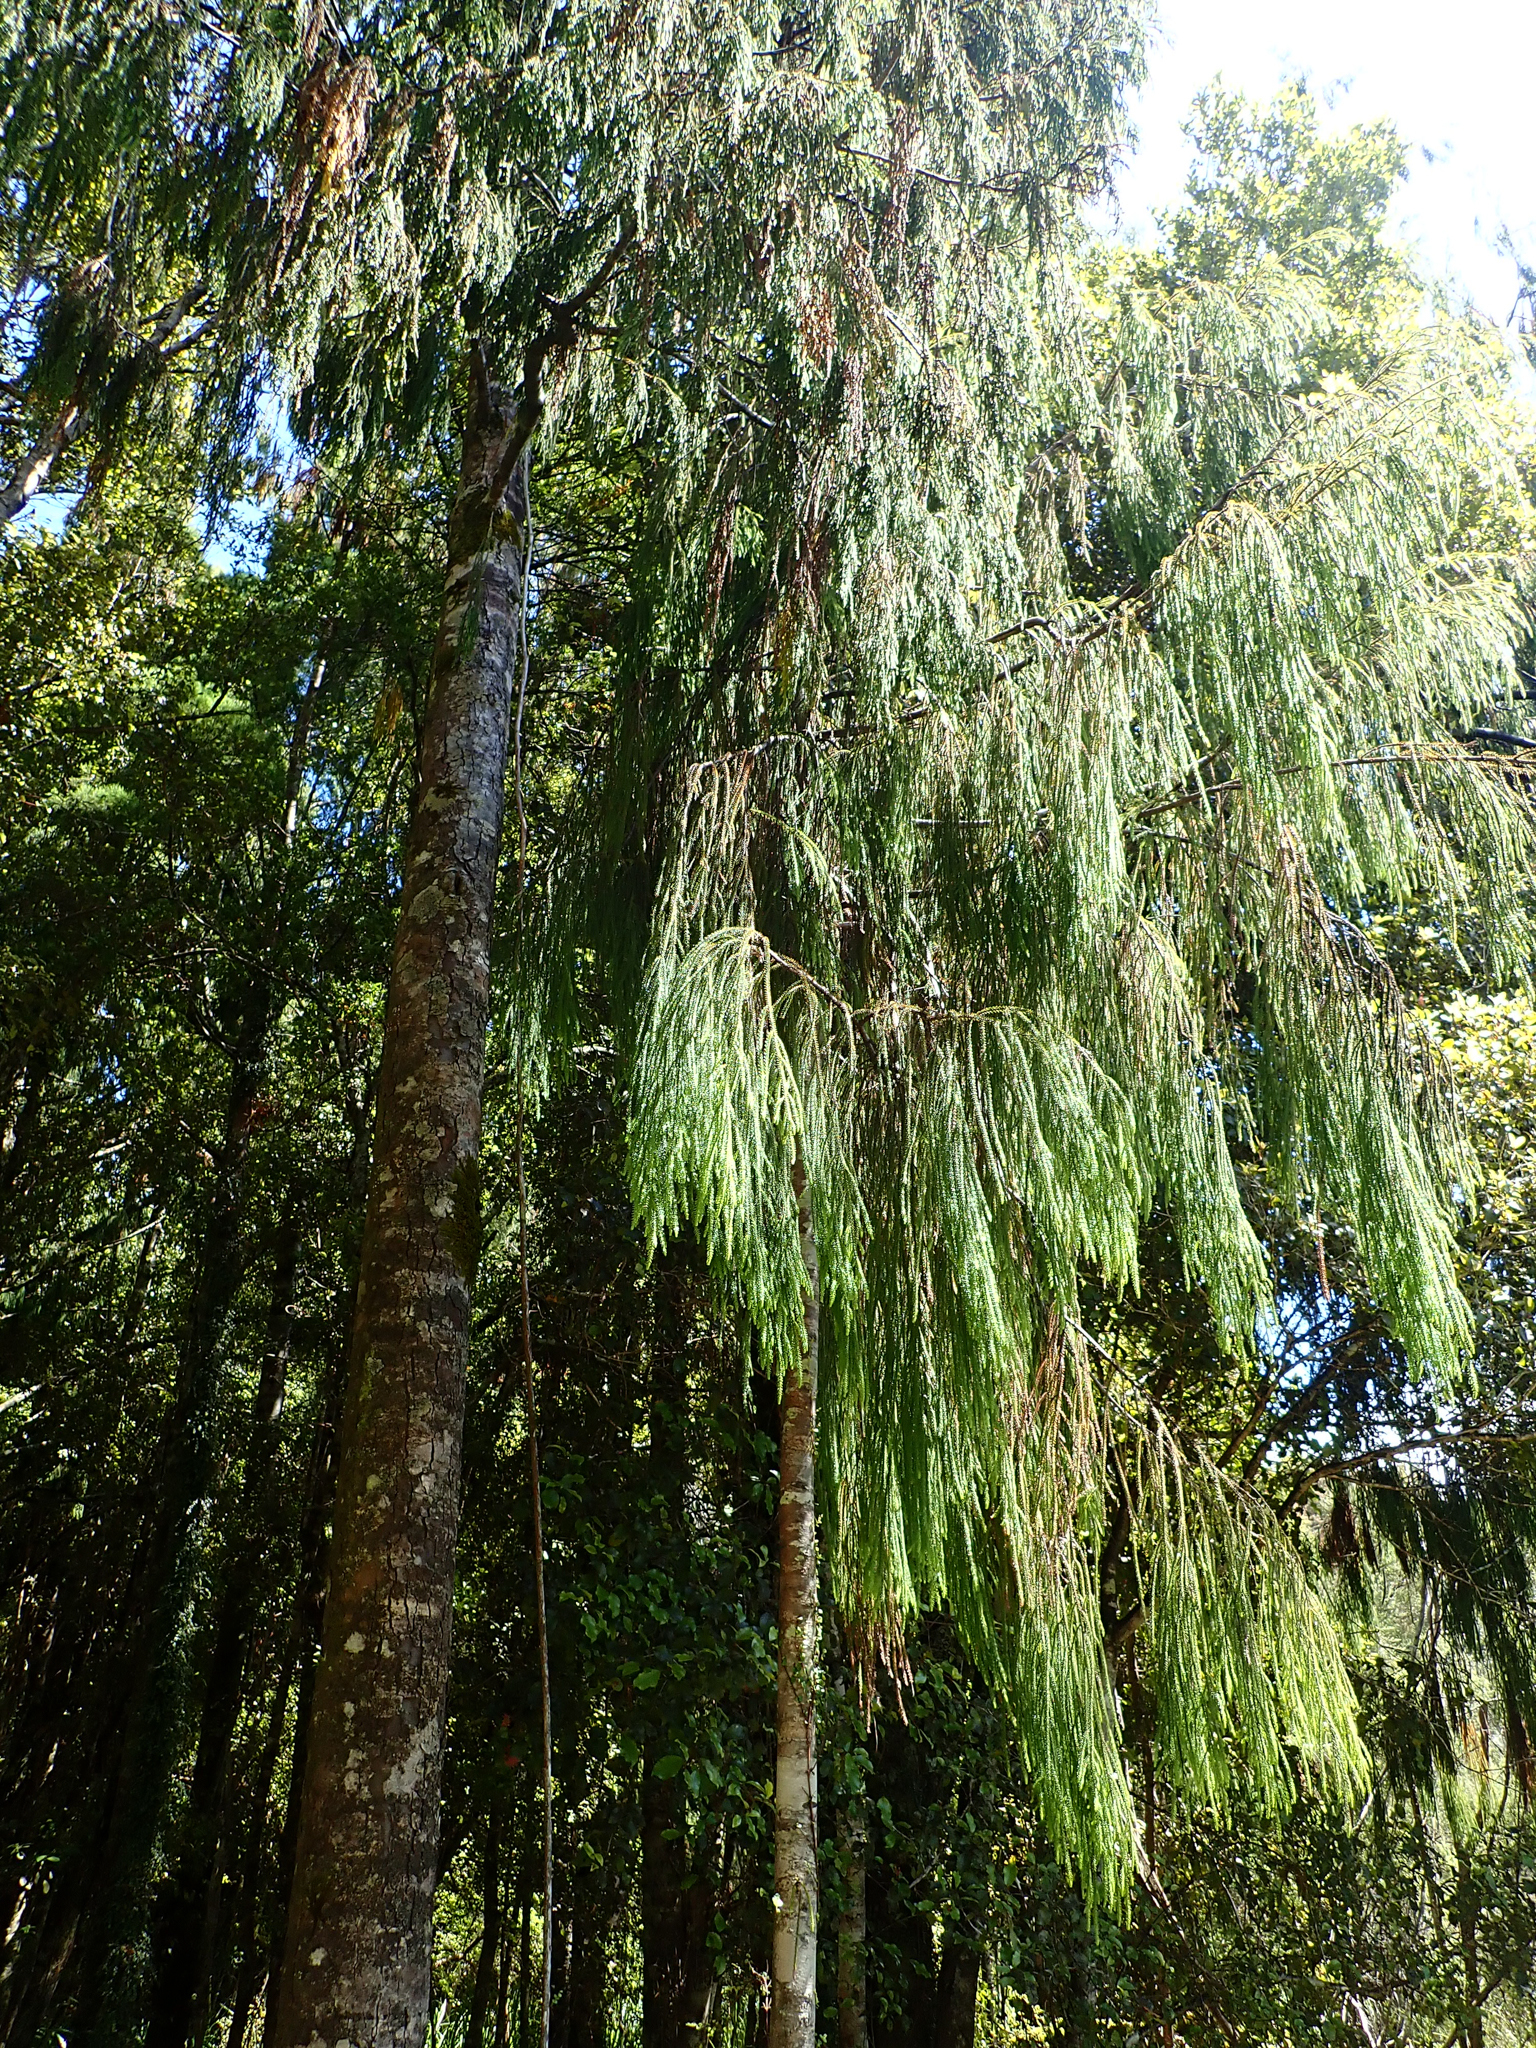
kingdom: Plantae
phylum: Tracheophyta
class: Pinopsida
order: Pinales
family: Podocarpaceae
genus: Dacrydium
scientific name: Dacrydium cupressinum
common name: Red pine
